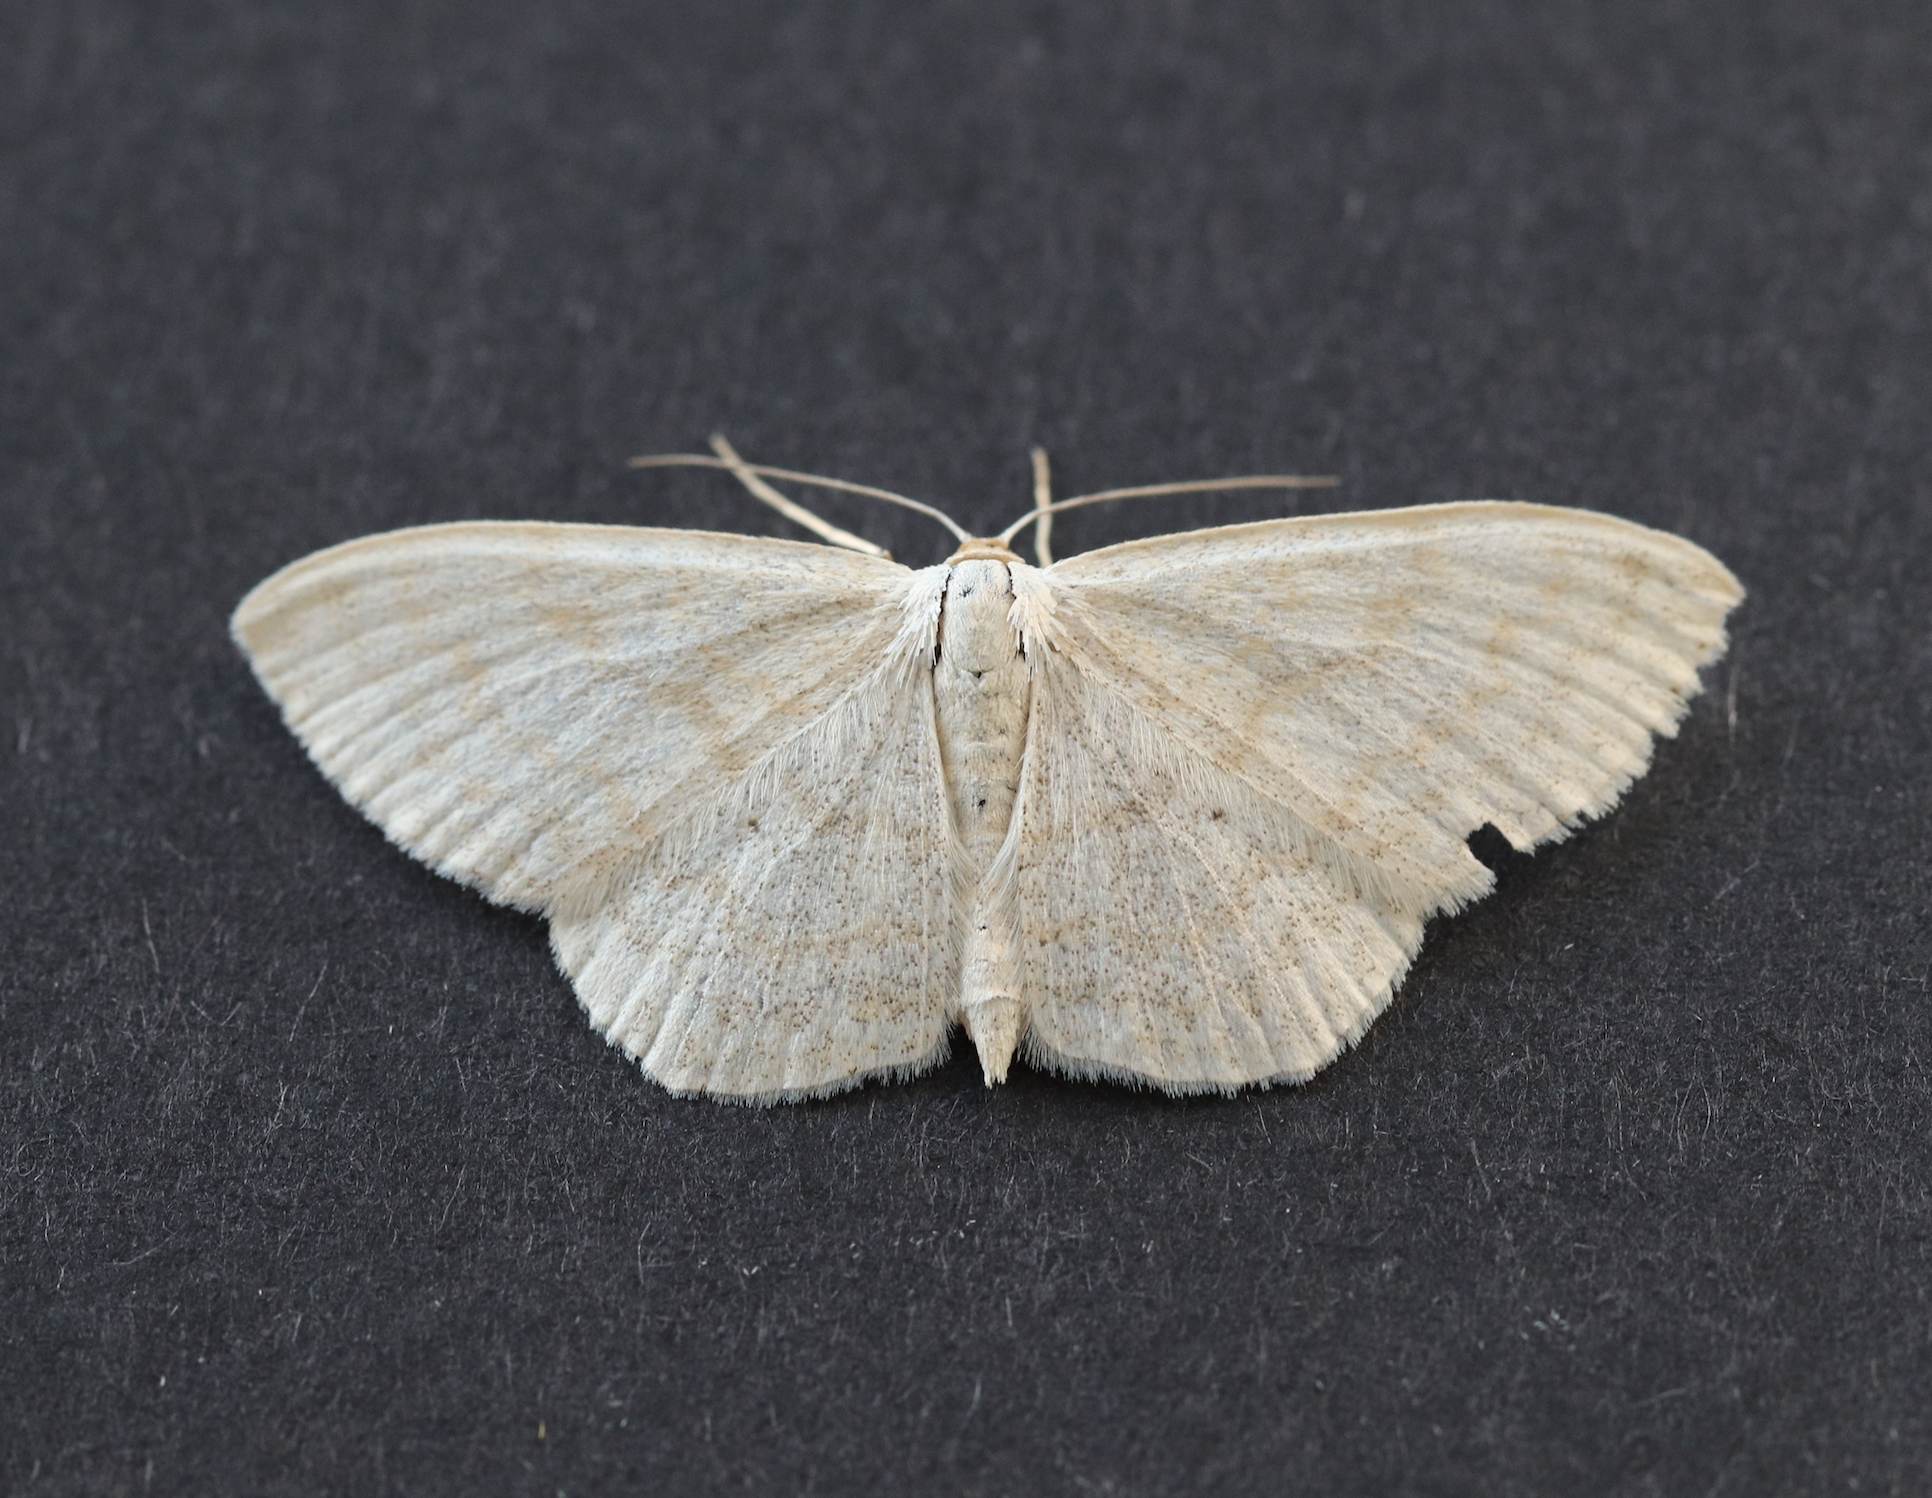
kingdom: Animalia
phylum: Arthropoda
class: Insecta
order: Lepidoptera
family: Geometridae
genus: Scopula
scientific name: Scopula floslactata
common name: Cream wave
